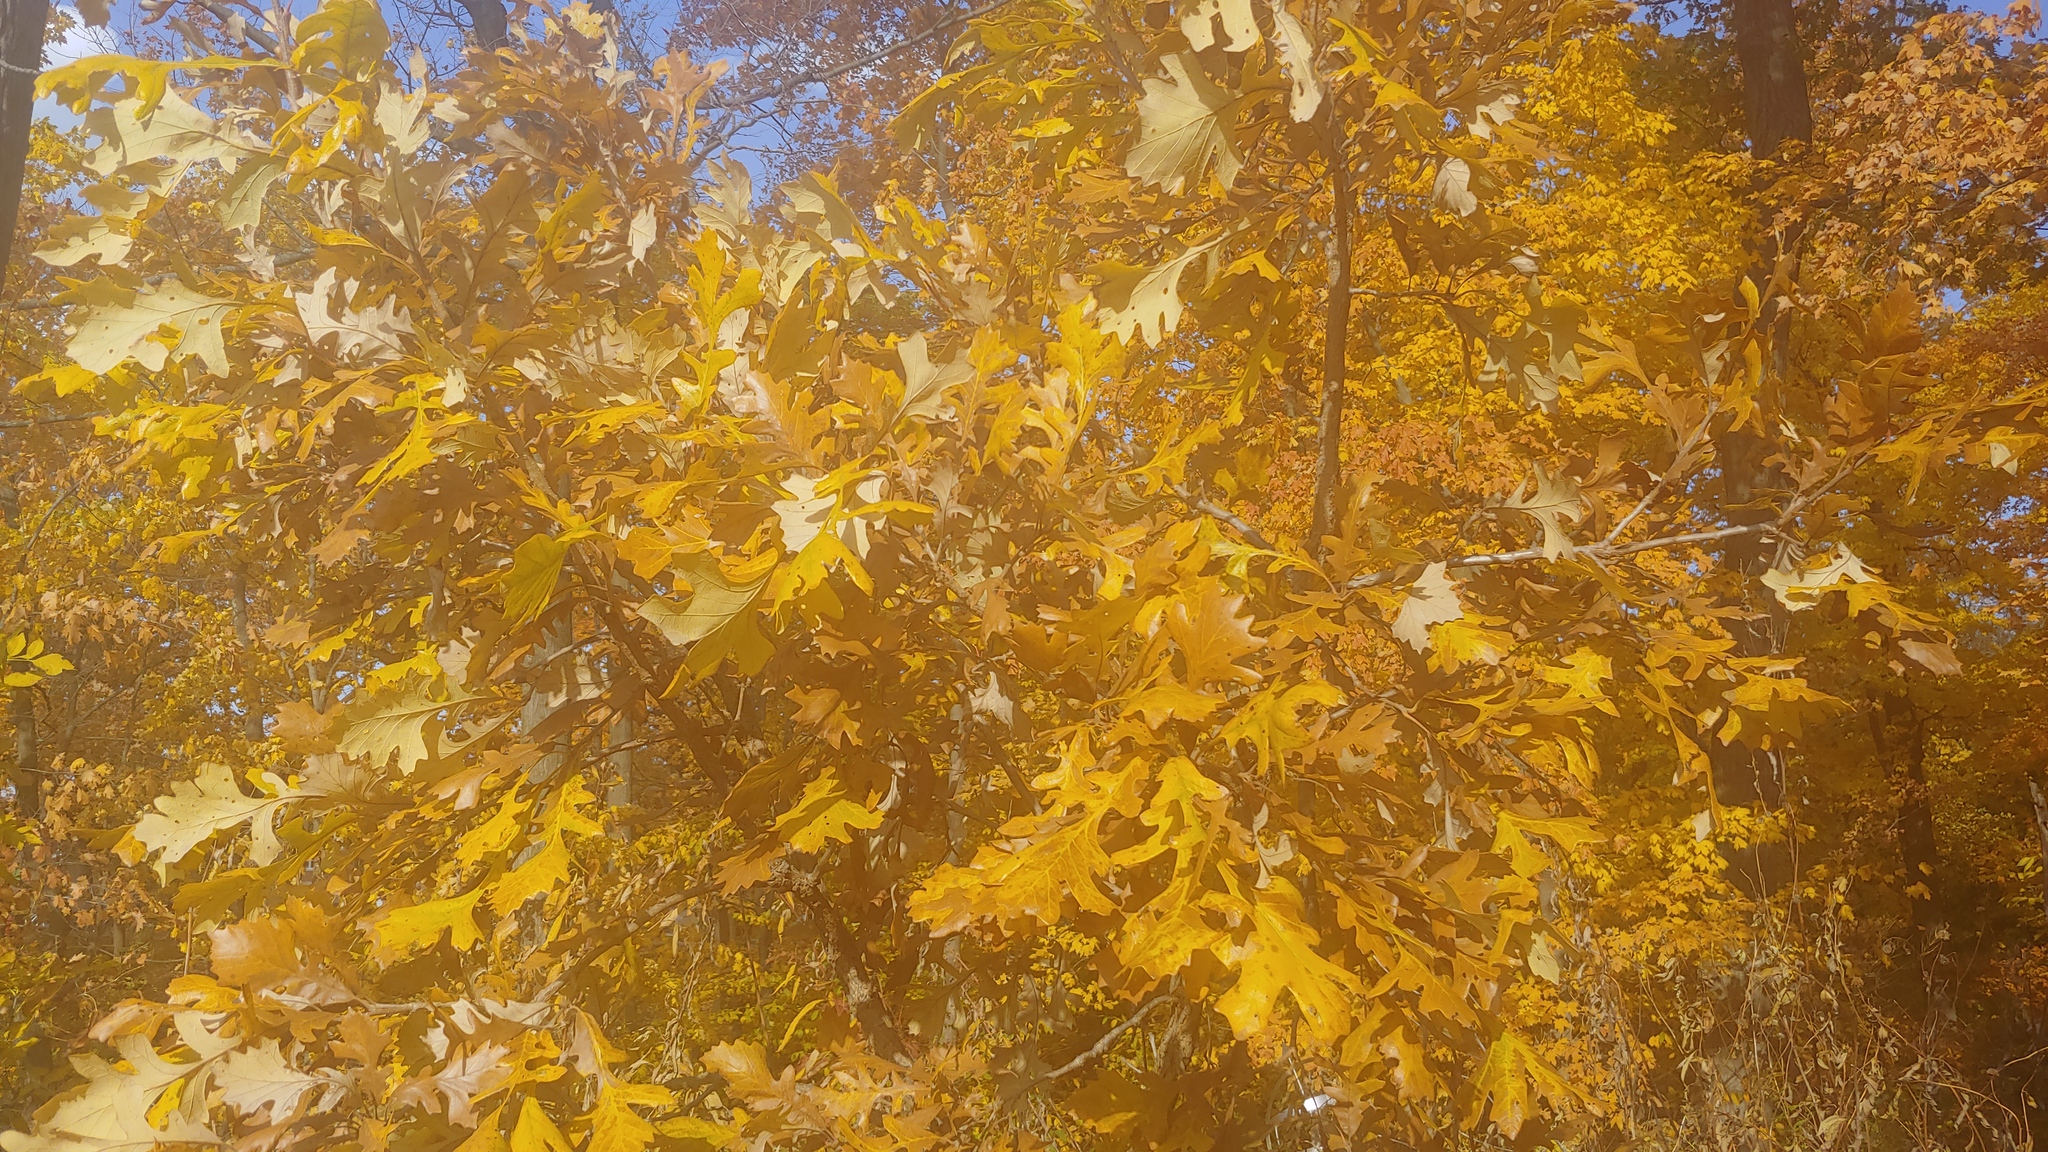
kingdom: Plantae
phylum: Tracheophyta
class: Magnoliopsida
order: Fagales
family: Fagaceae
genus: Quercus
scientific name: Quercus macrocarpa
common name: Bur oak
